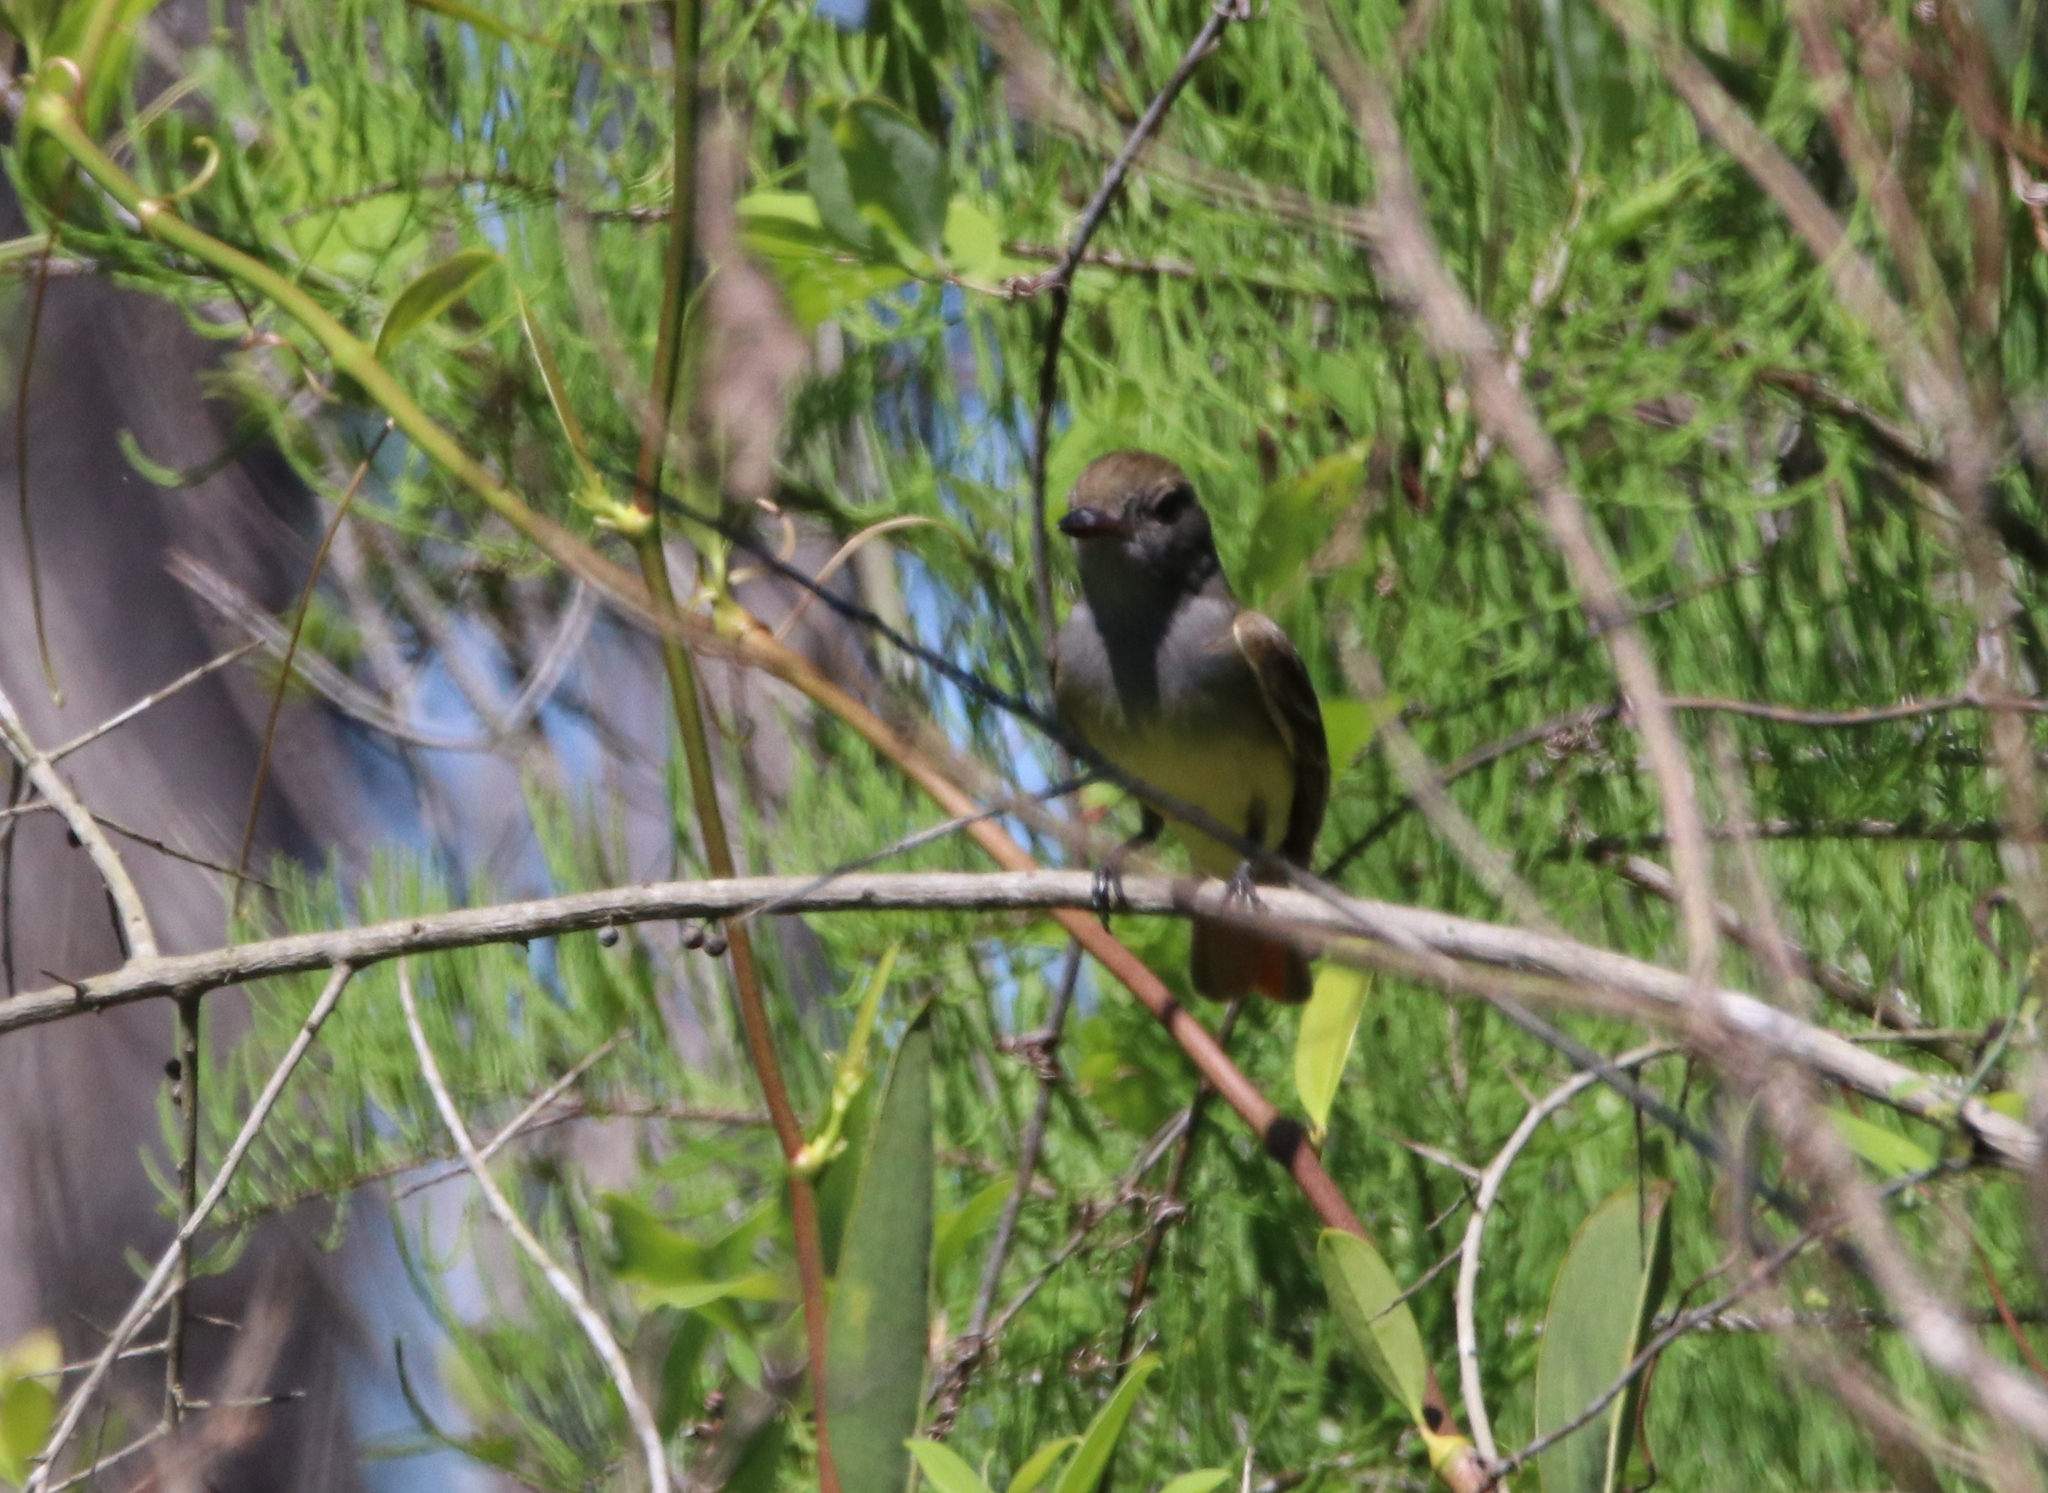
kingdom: Animalia
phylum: Chordata
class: Aves
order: Passeriformes
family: Tyrannidae
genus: Myiarchus
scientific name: Myiarchus crinitus
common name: Great crested flycatcher
